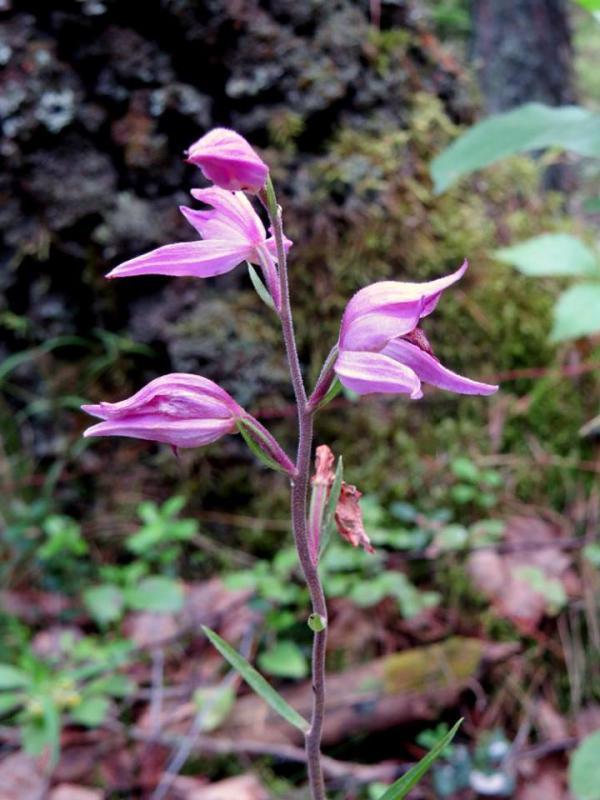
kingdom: Plantae
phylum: Tracheophyta
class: Liliopsida
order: Asparagales
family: Orchidaceae
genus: Cephalanthera
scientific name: Cephalanthera rubra
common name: Red helleborine
